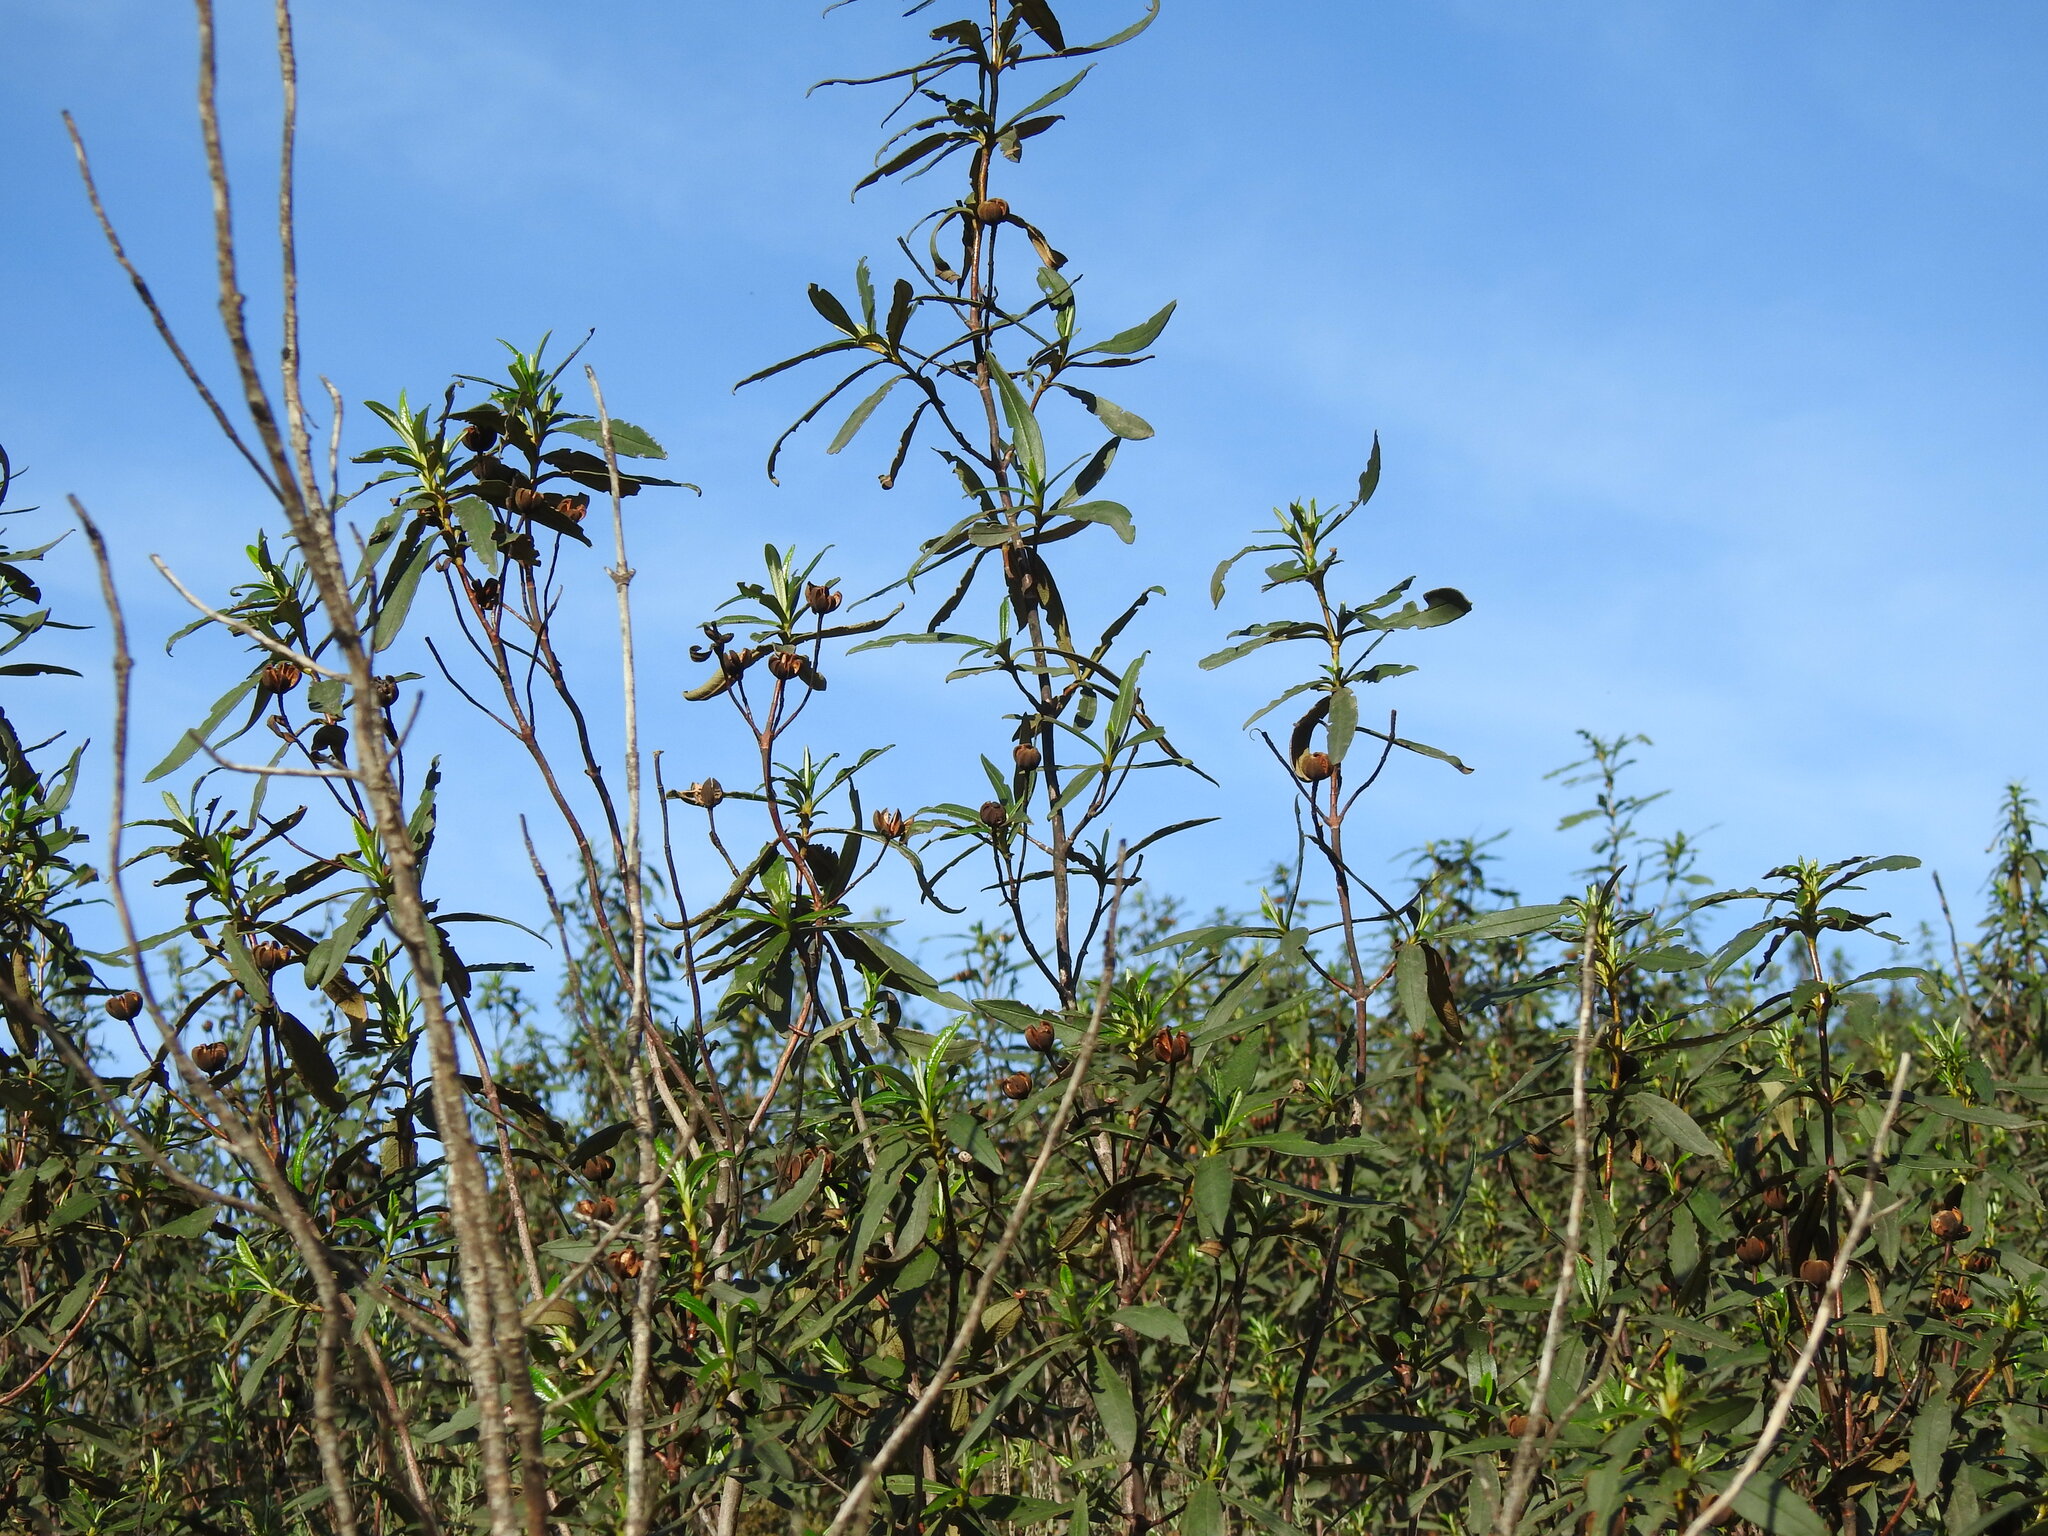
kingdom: Plantae
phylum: Tracheophyta
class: Magnoliopsida
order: Malvales
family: Cistaceae
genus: Cistus
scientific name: Cistus ladanifer
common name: Common gum cistus
